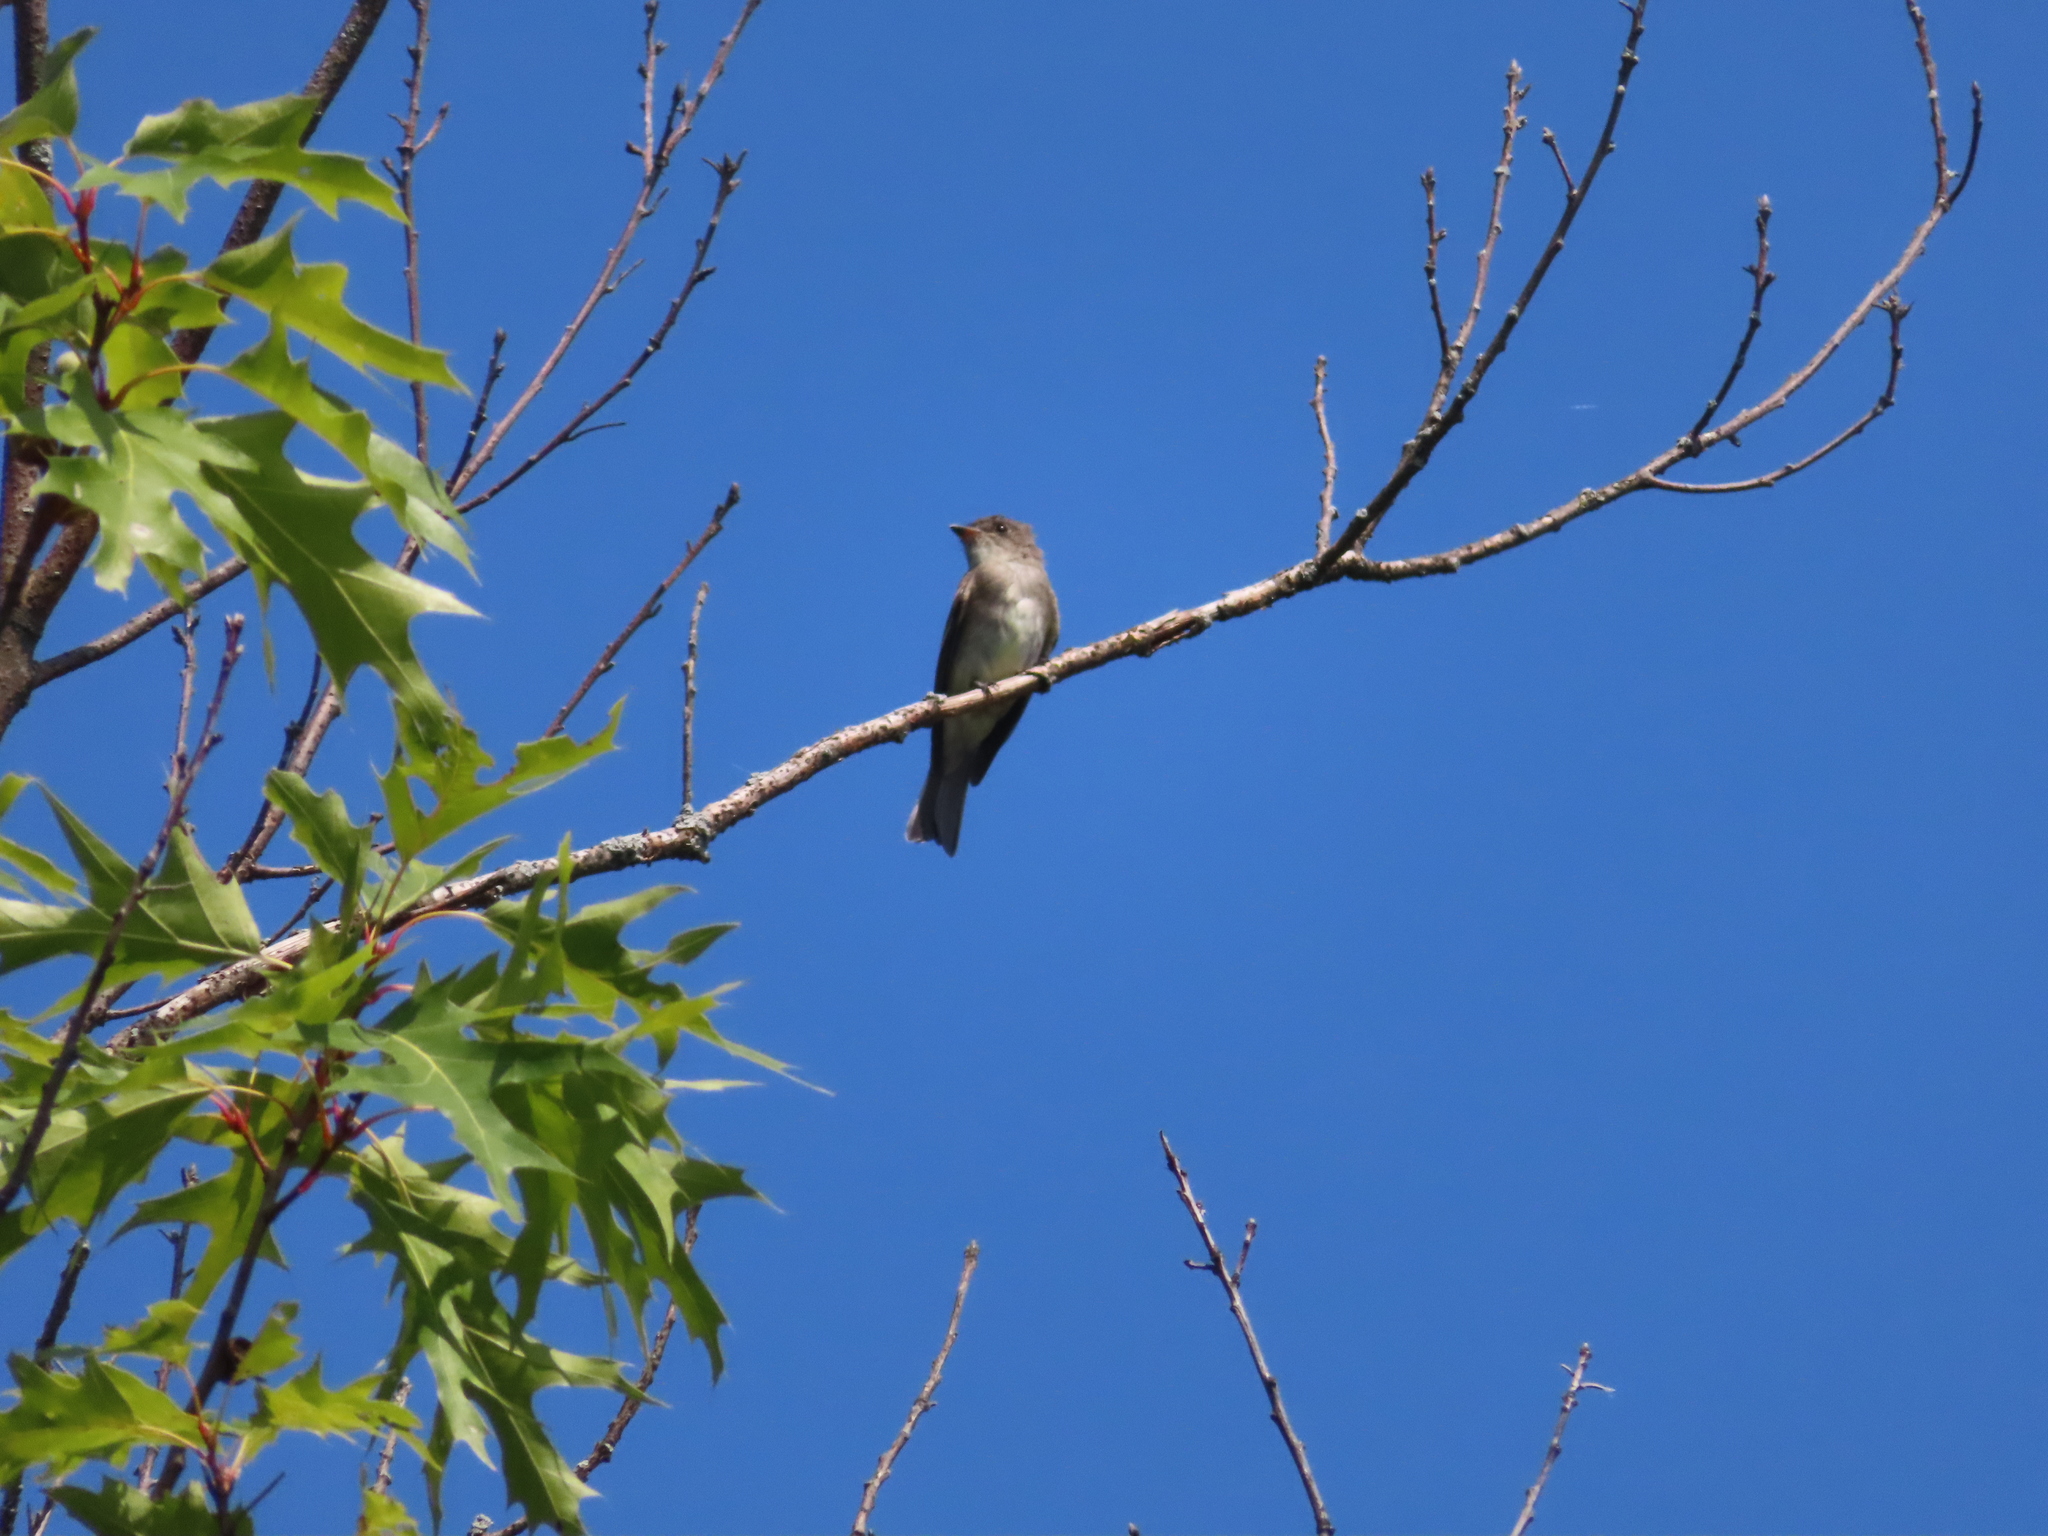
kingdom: Animalia
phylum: Chordata
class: Aves
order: Passeriformes
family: Tyrannidae
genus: Contopus
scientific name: Contopus virens
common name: Eastern wood-pewee
